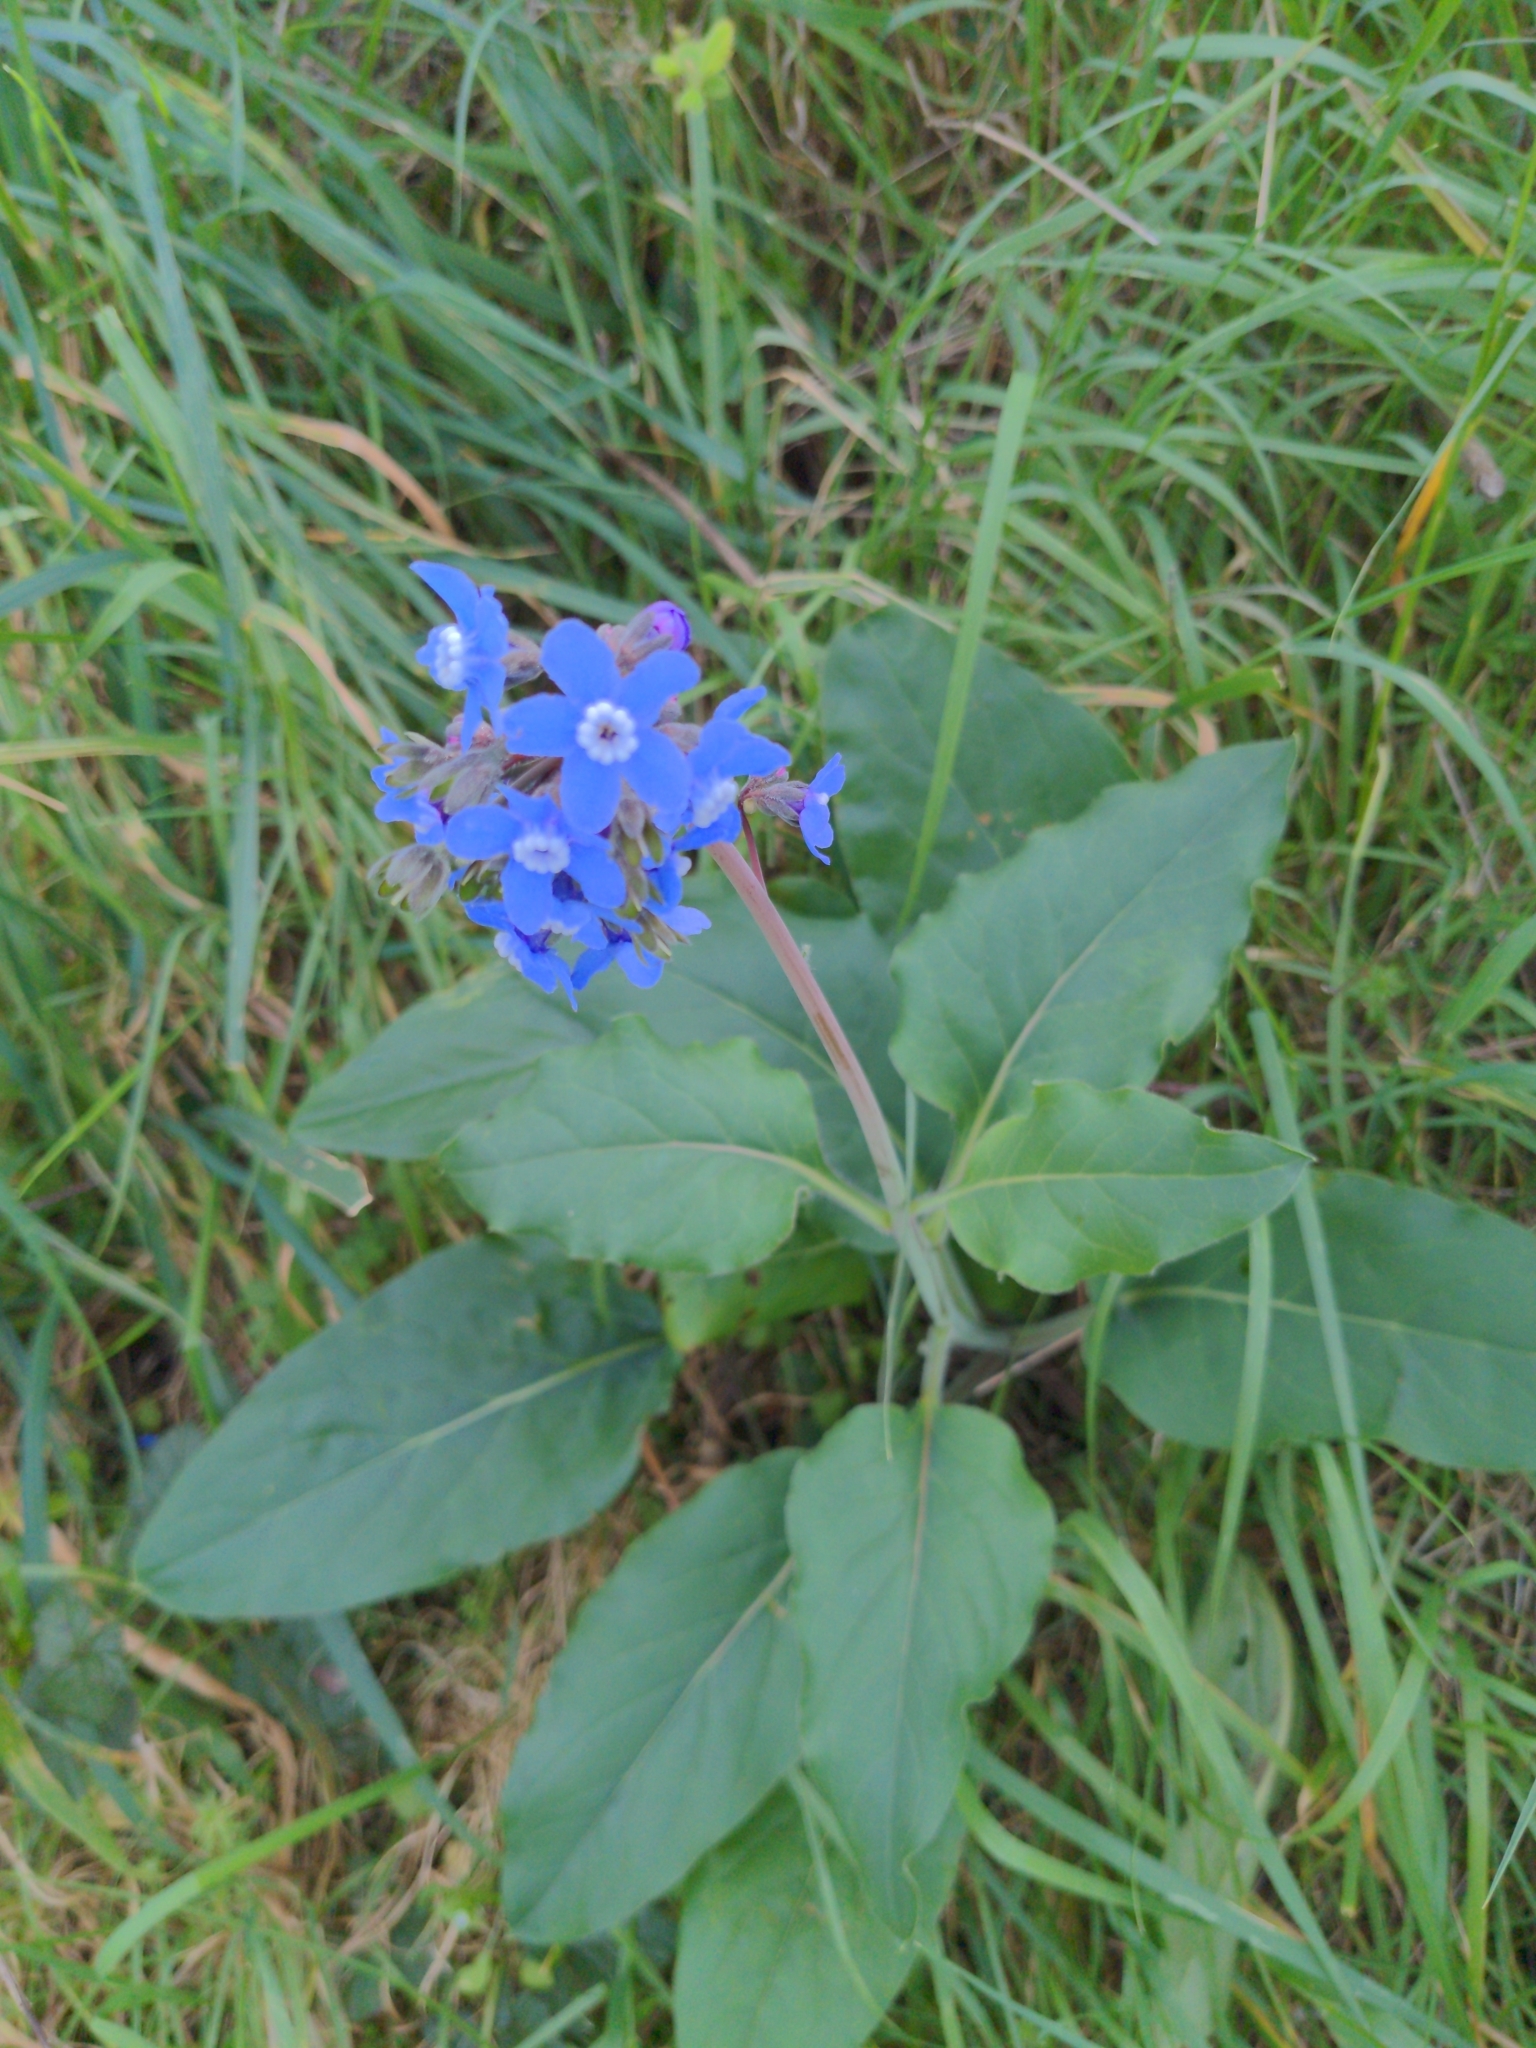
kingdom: Plantae
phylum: Tracheophyta
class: Magnoliopsida
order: Boraginales
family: Boraginaceae
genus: Adelinia
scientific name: Adelinia grande
